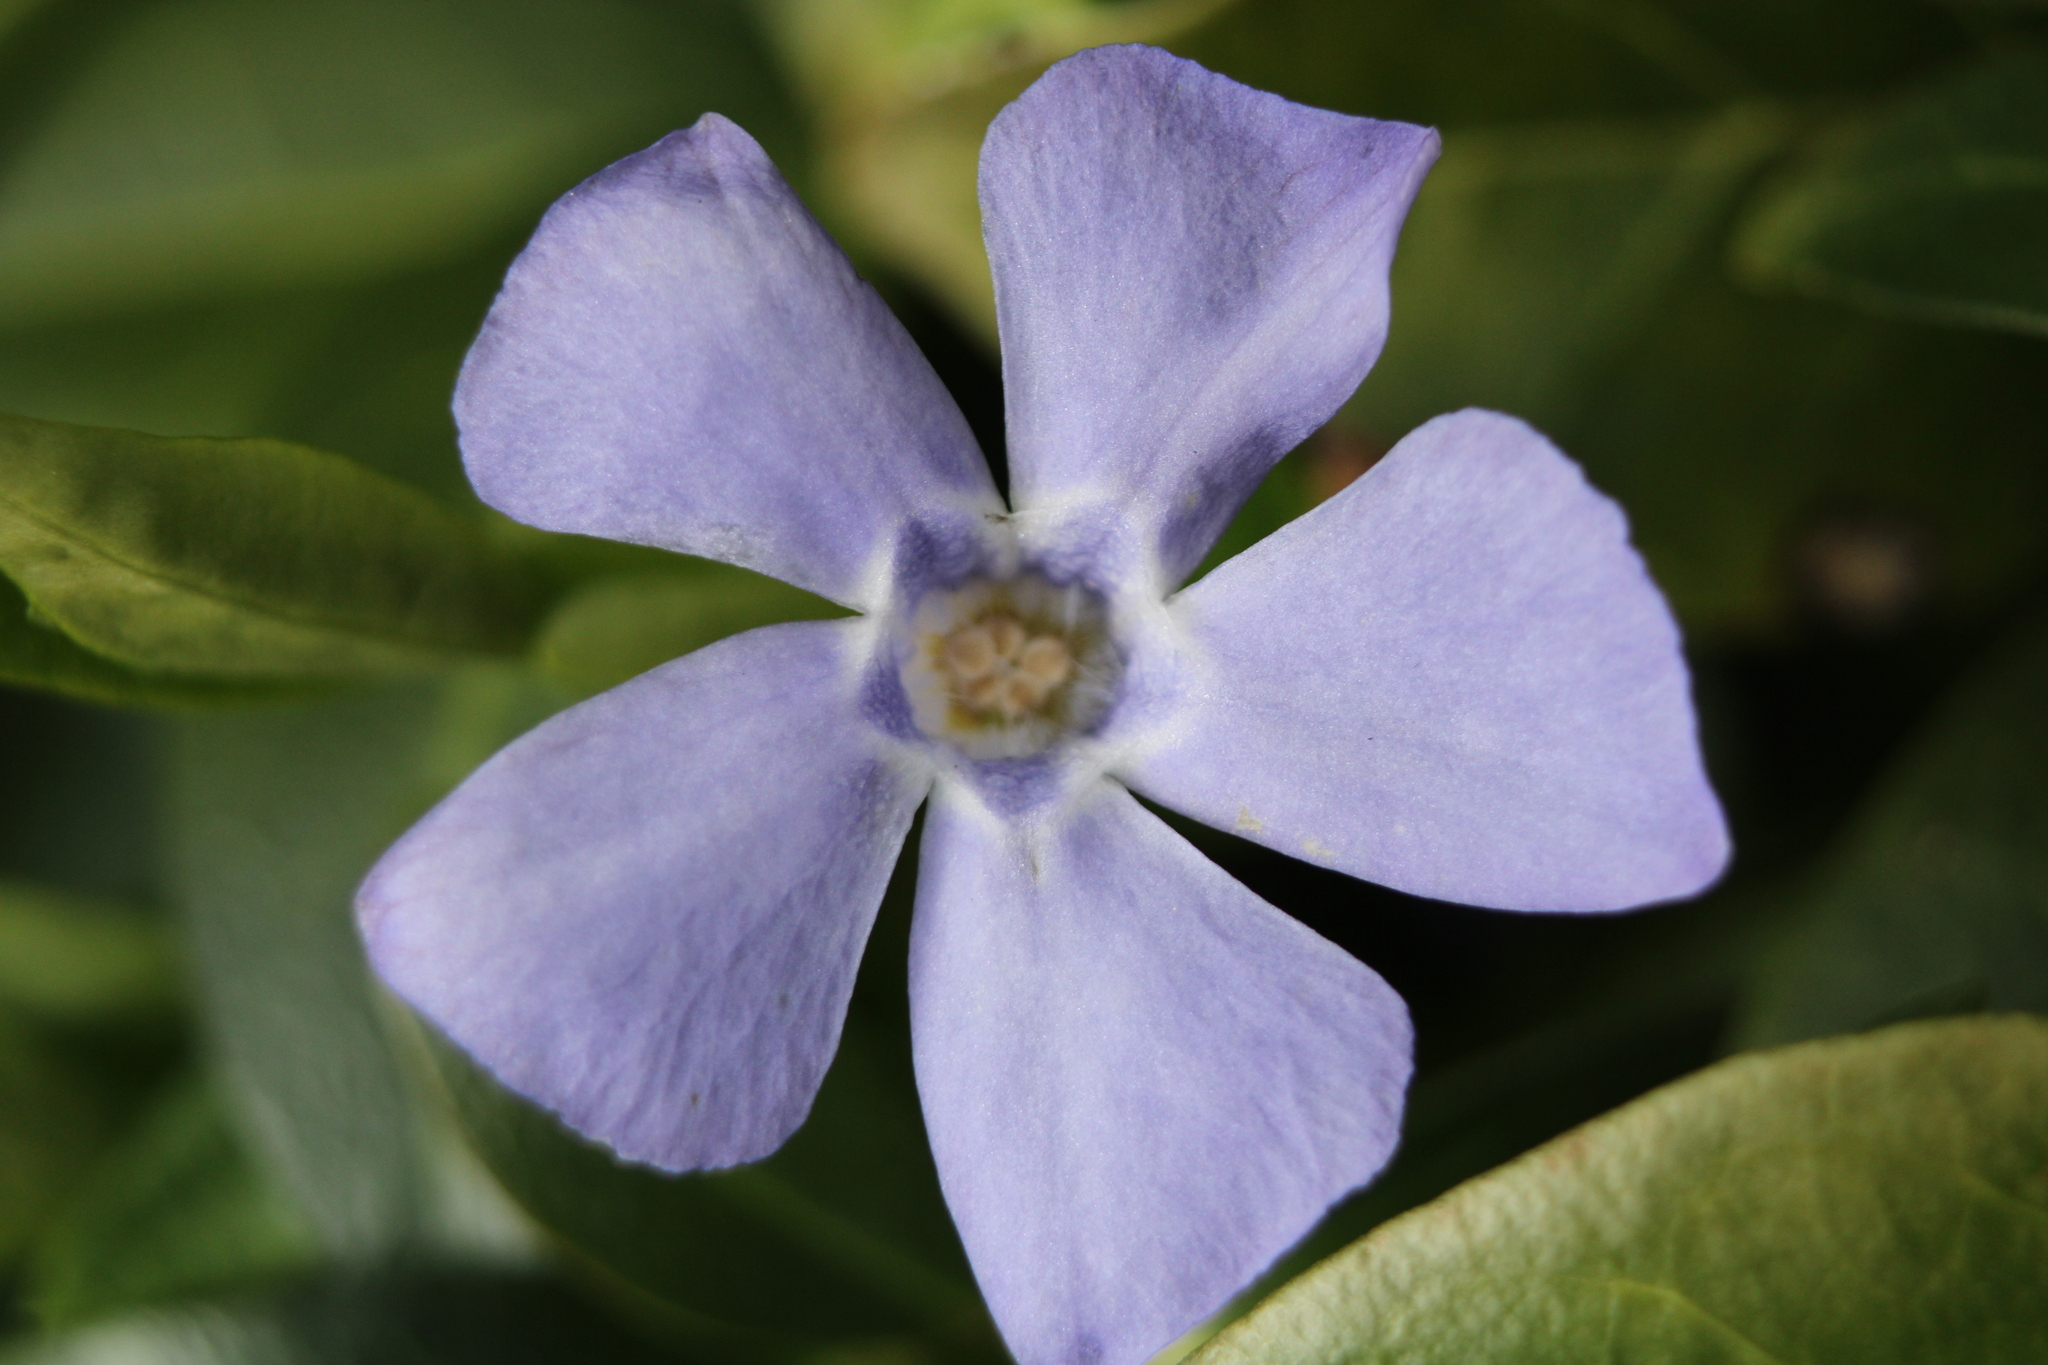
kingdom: Plantae
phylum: Tracheophyta
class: Magnoliopsida
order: Gentianales
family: Apocynaceae
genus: Vinca
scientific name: Vinca minor
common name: Lesser periwinkle
